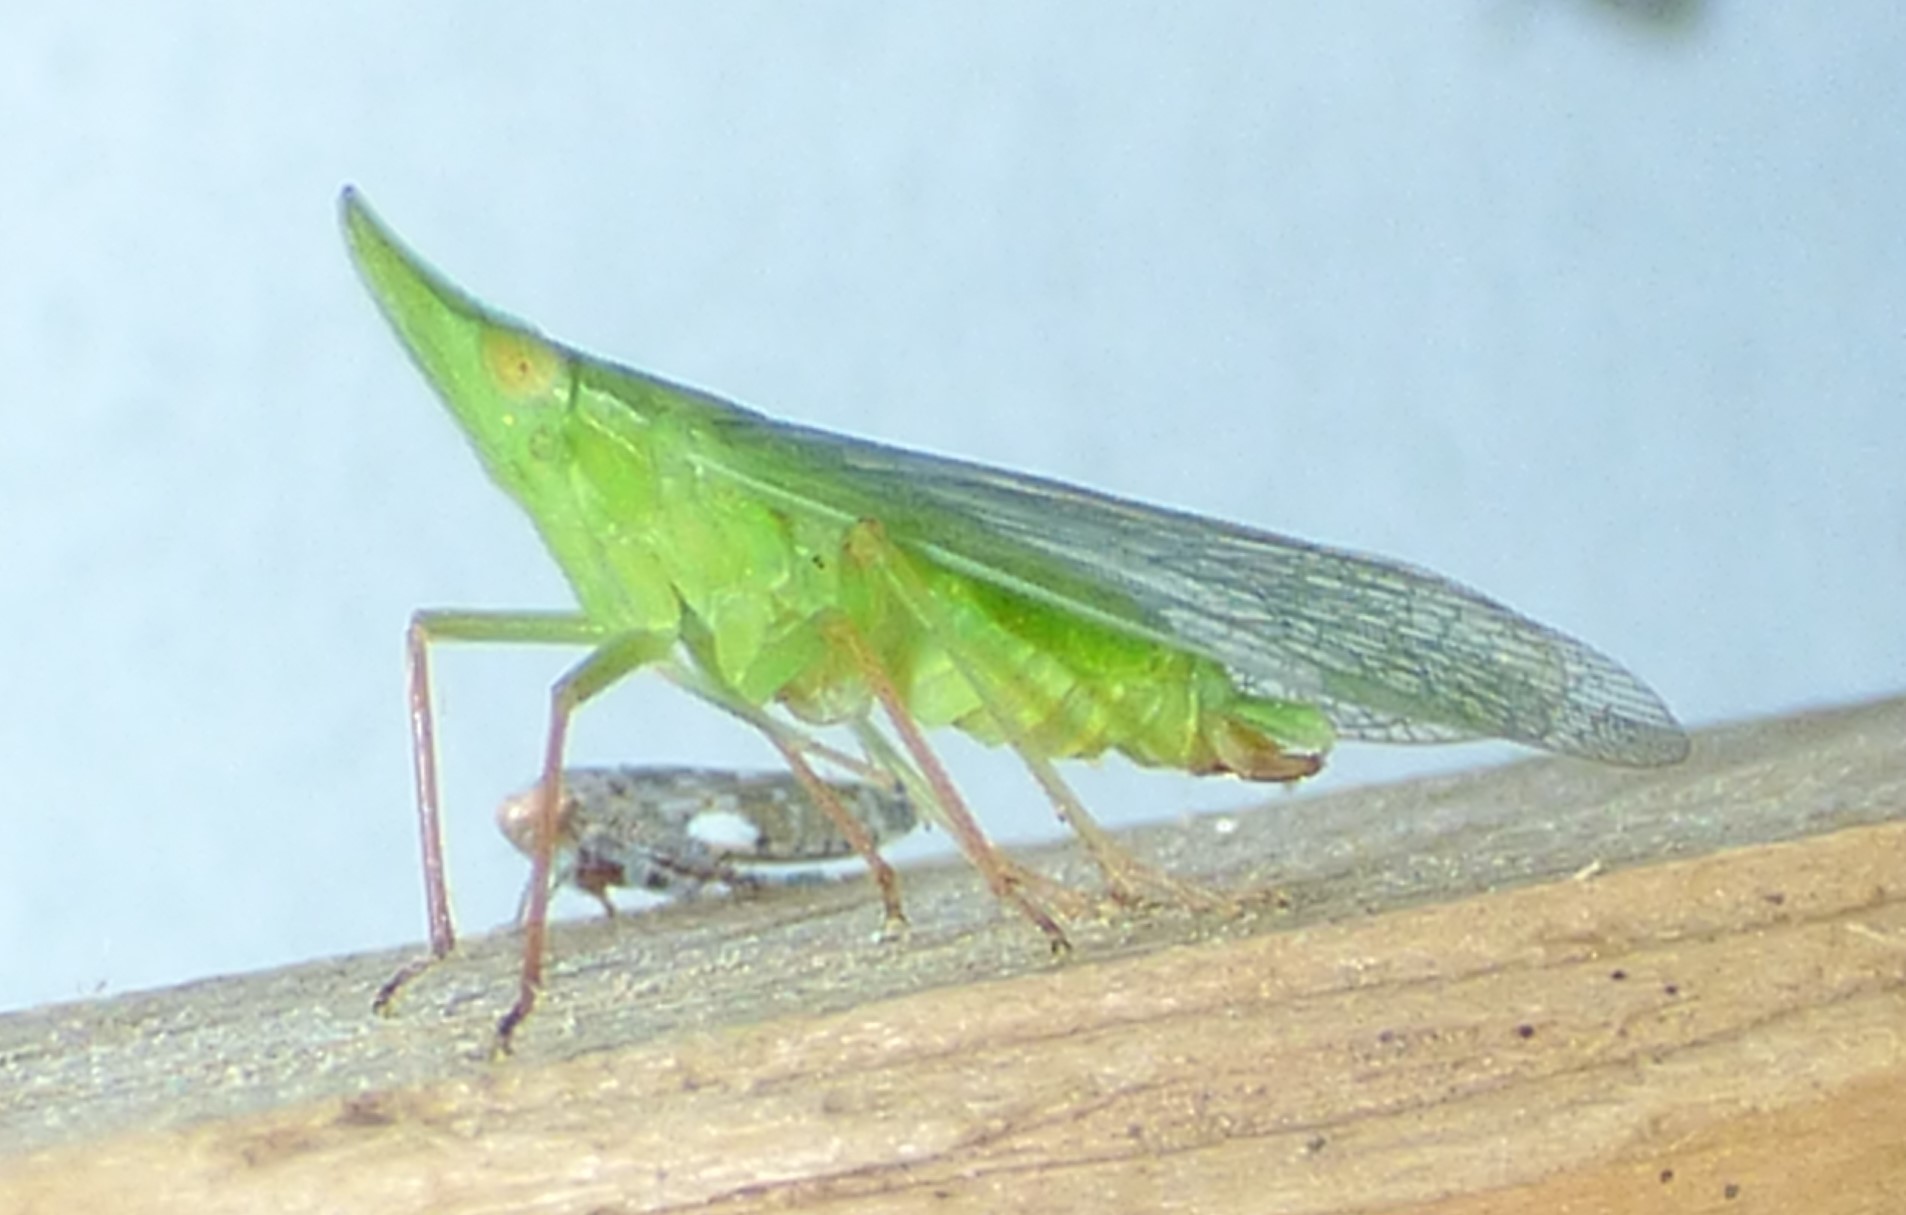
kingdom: Animalia
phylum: Arthropoda
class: Insecta
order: Hemiptera
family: Dictyopharidae
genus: Rhynchomitra
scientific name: Rhynchomitra microrhina
